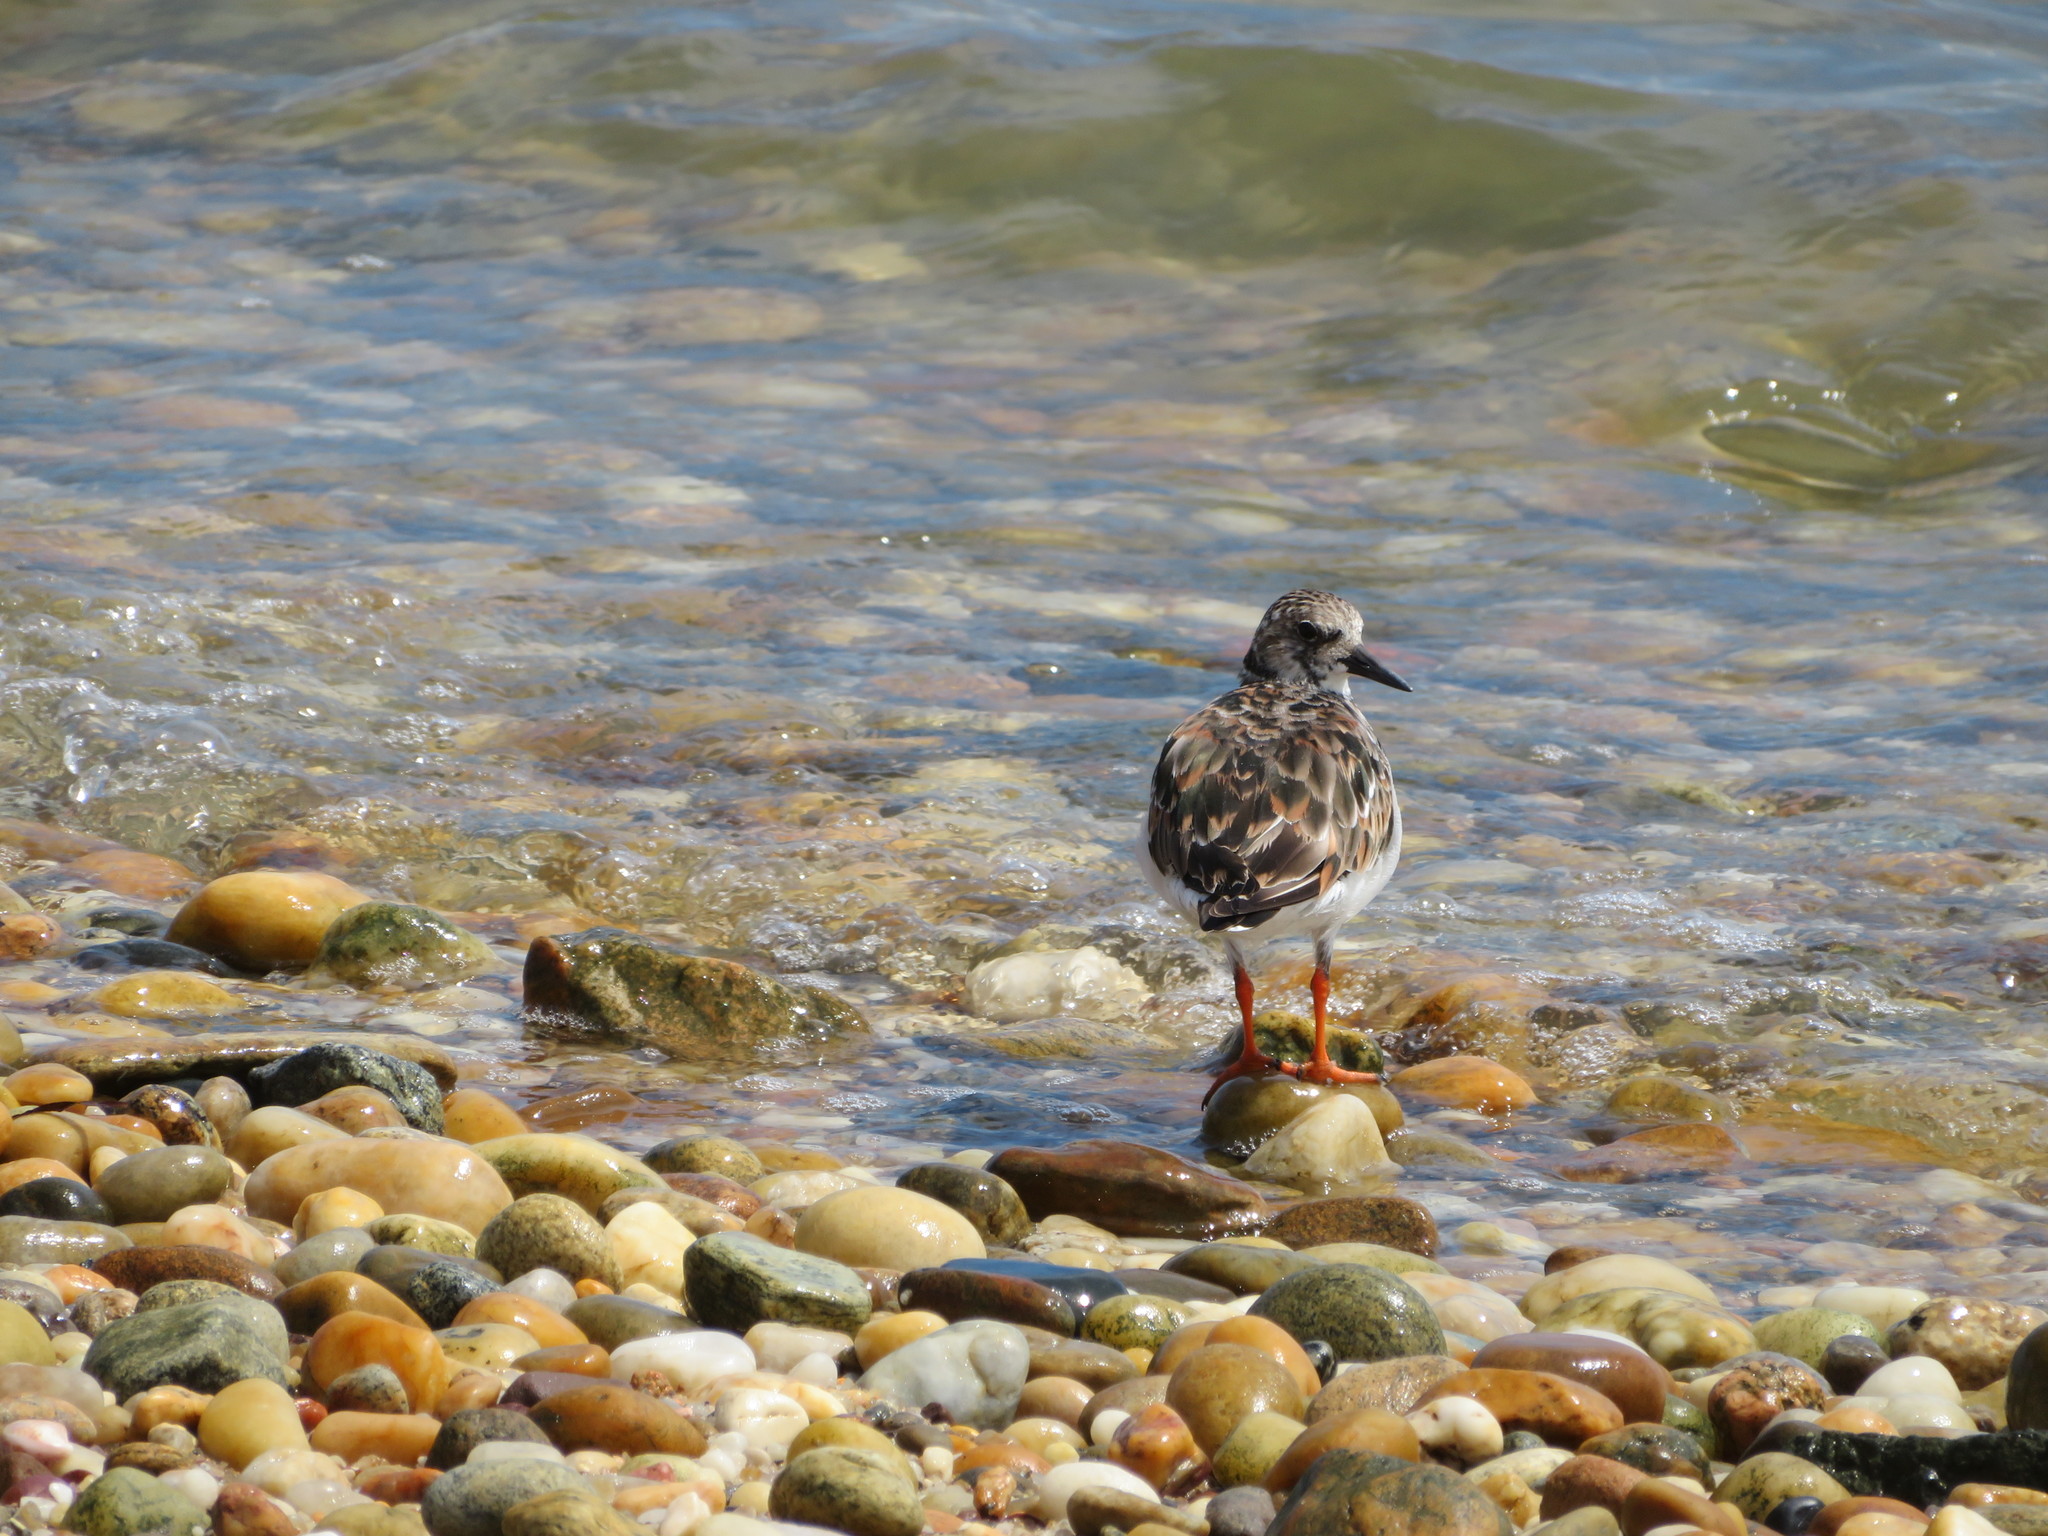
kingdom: Animalia
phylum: Chordata
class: Aves
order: Charadriiformes
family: Scolopacidae
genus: Arenaria
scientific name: Arenaria interpres
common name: Ruddy turnstone
